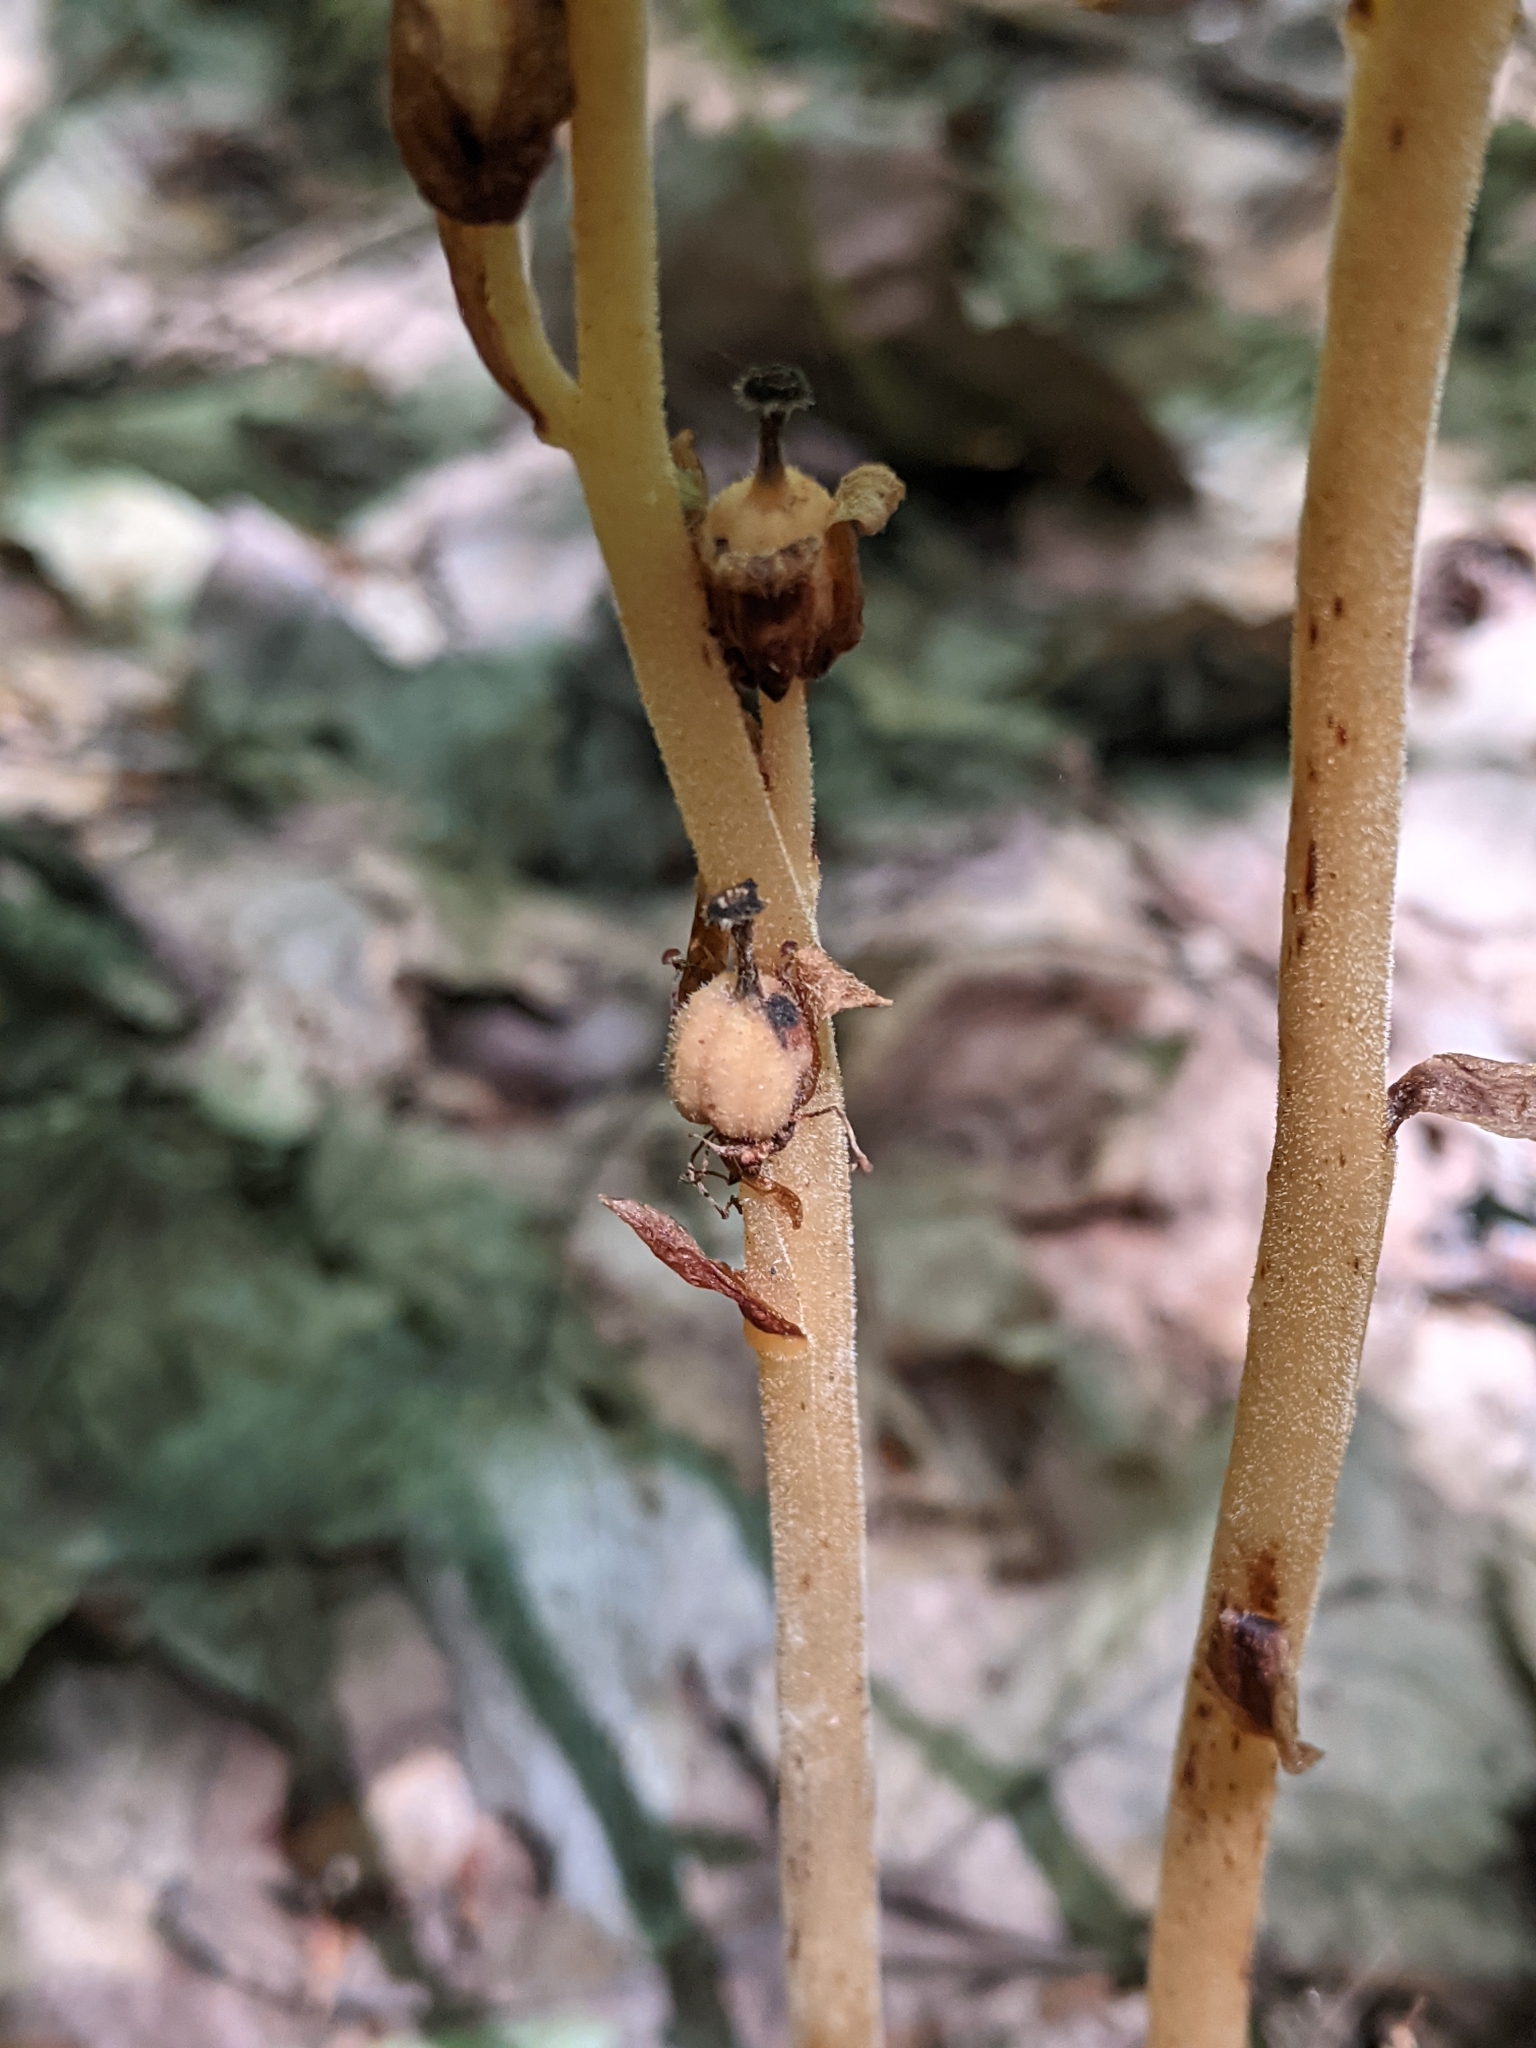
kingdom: Plantae
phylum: Tracheophyta
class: Magnoliopsida
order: Ericales
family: Ericaceae
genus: Hypopitys
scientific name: Hypopitys monotropa
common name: Yellow bird's-nest
